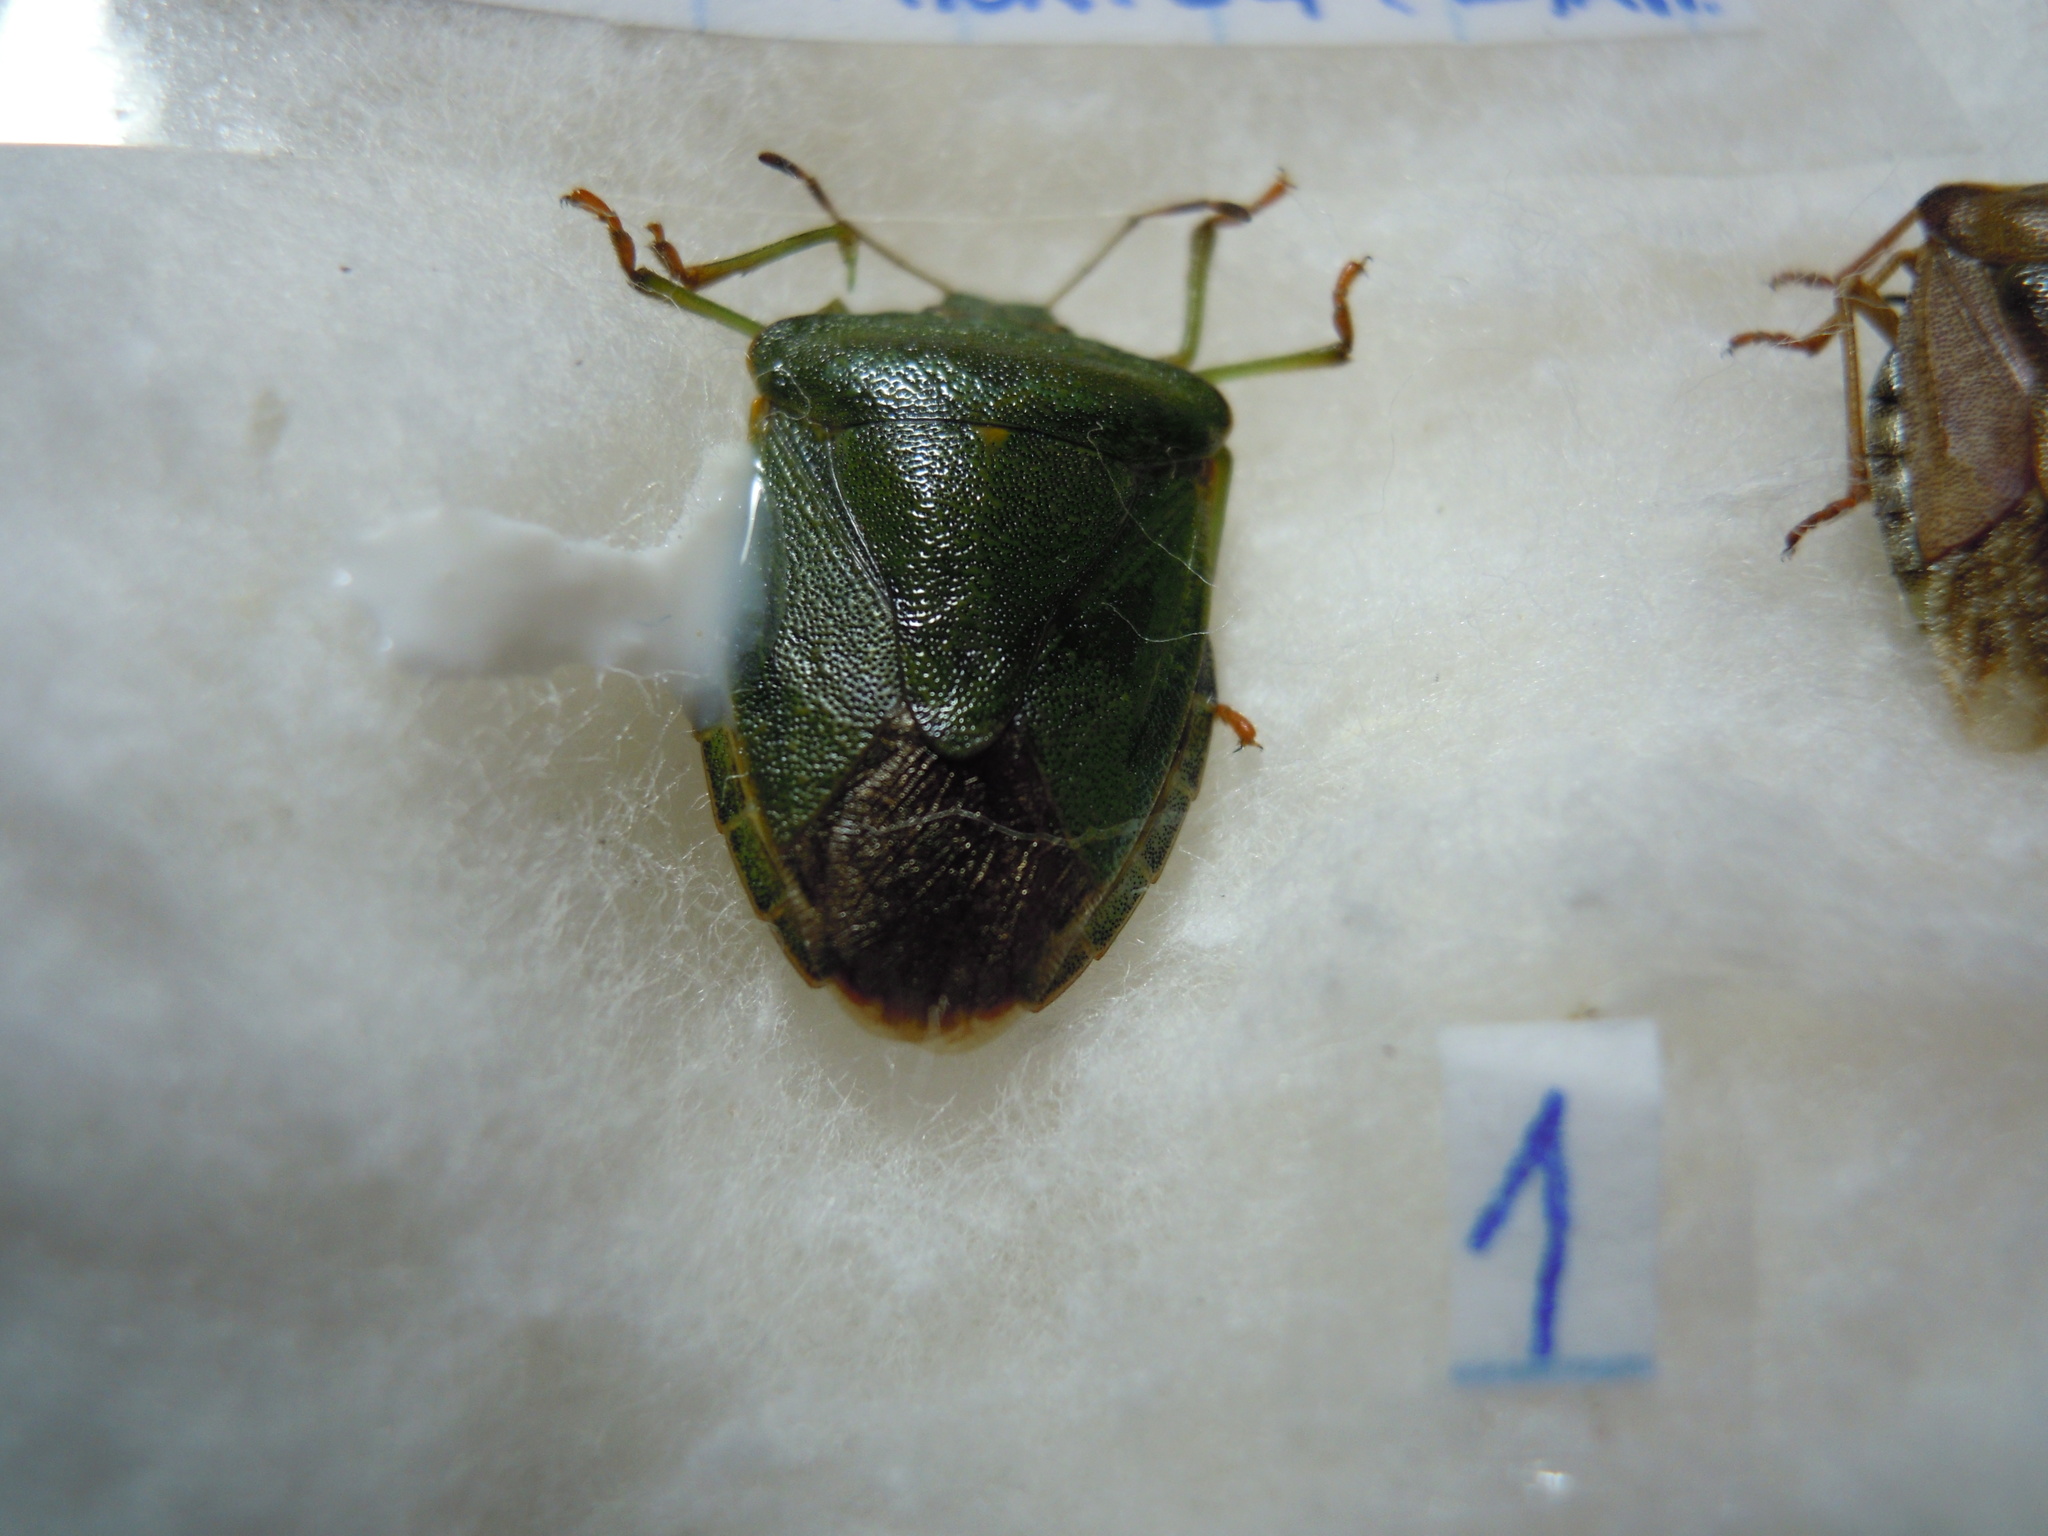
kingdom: Animalia
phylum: Arthropoda
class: Insecta
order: Hemiptera
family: Pentatomidae
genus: Palomena
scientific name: Palomena prasina
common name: Green shieldbug
